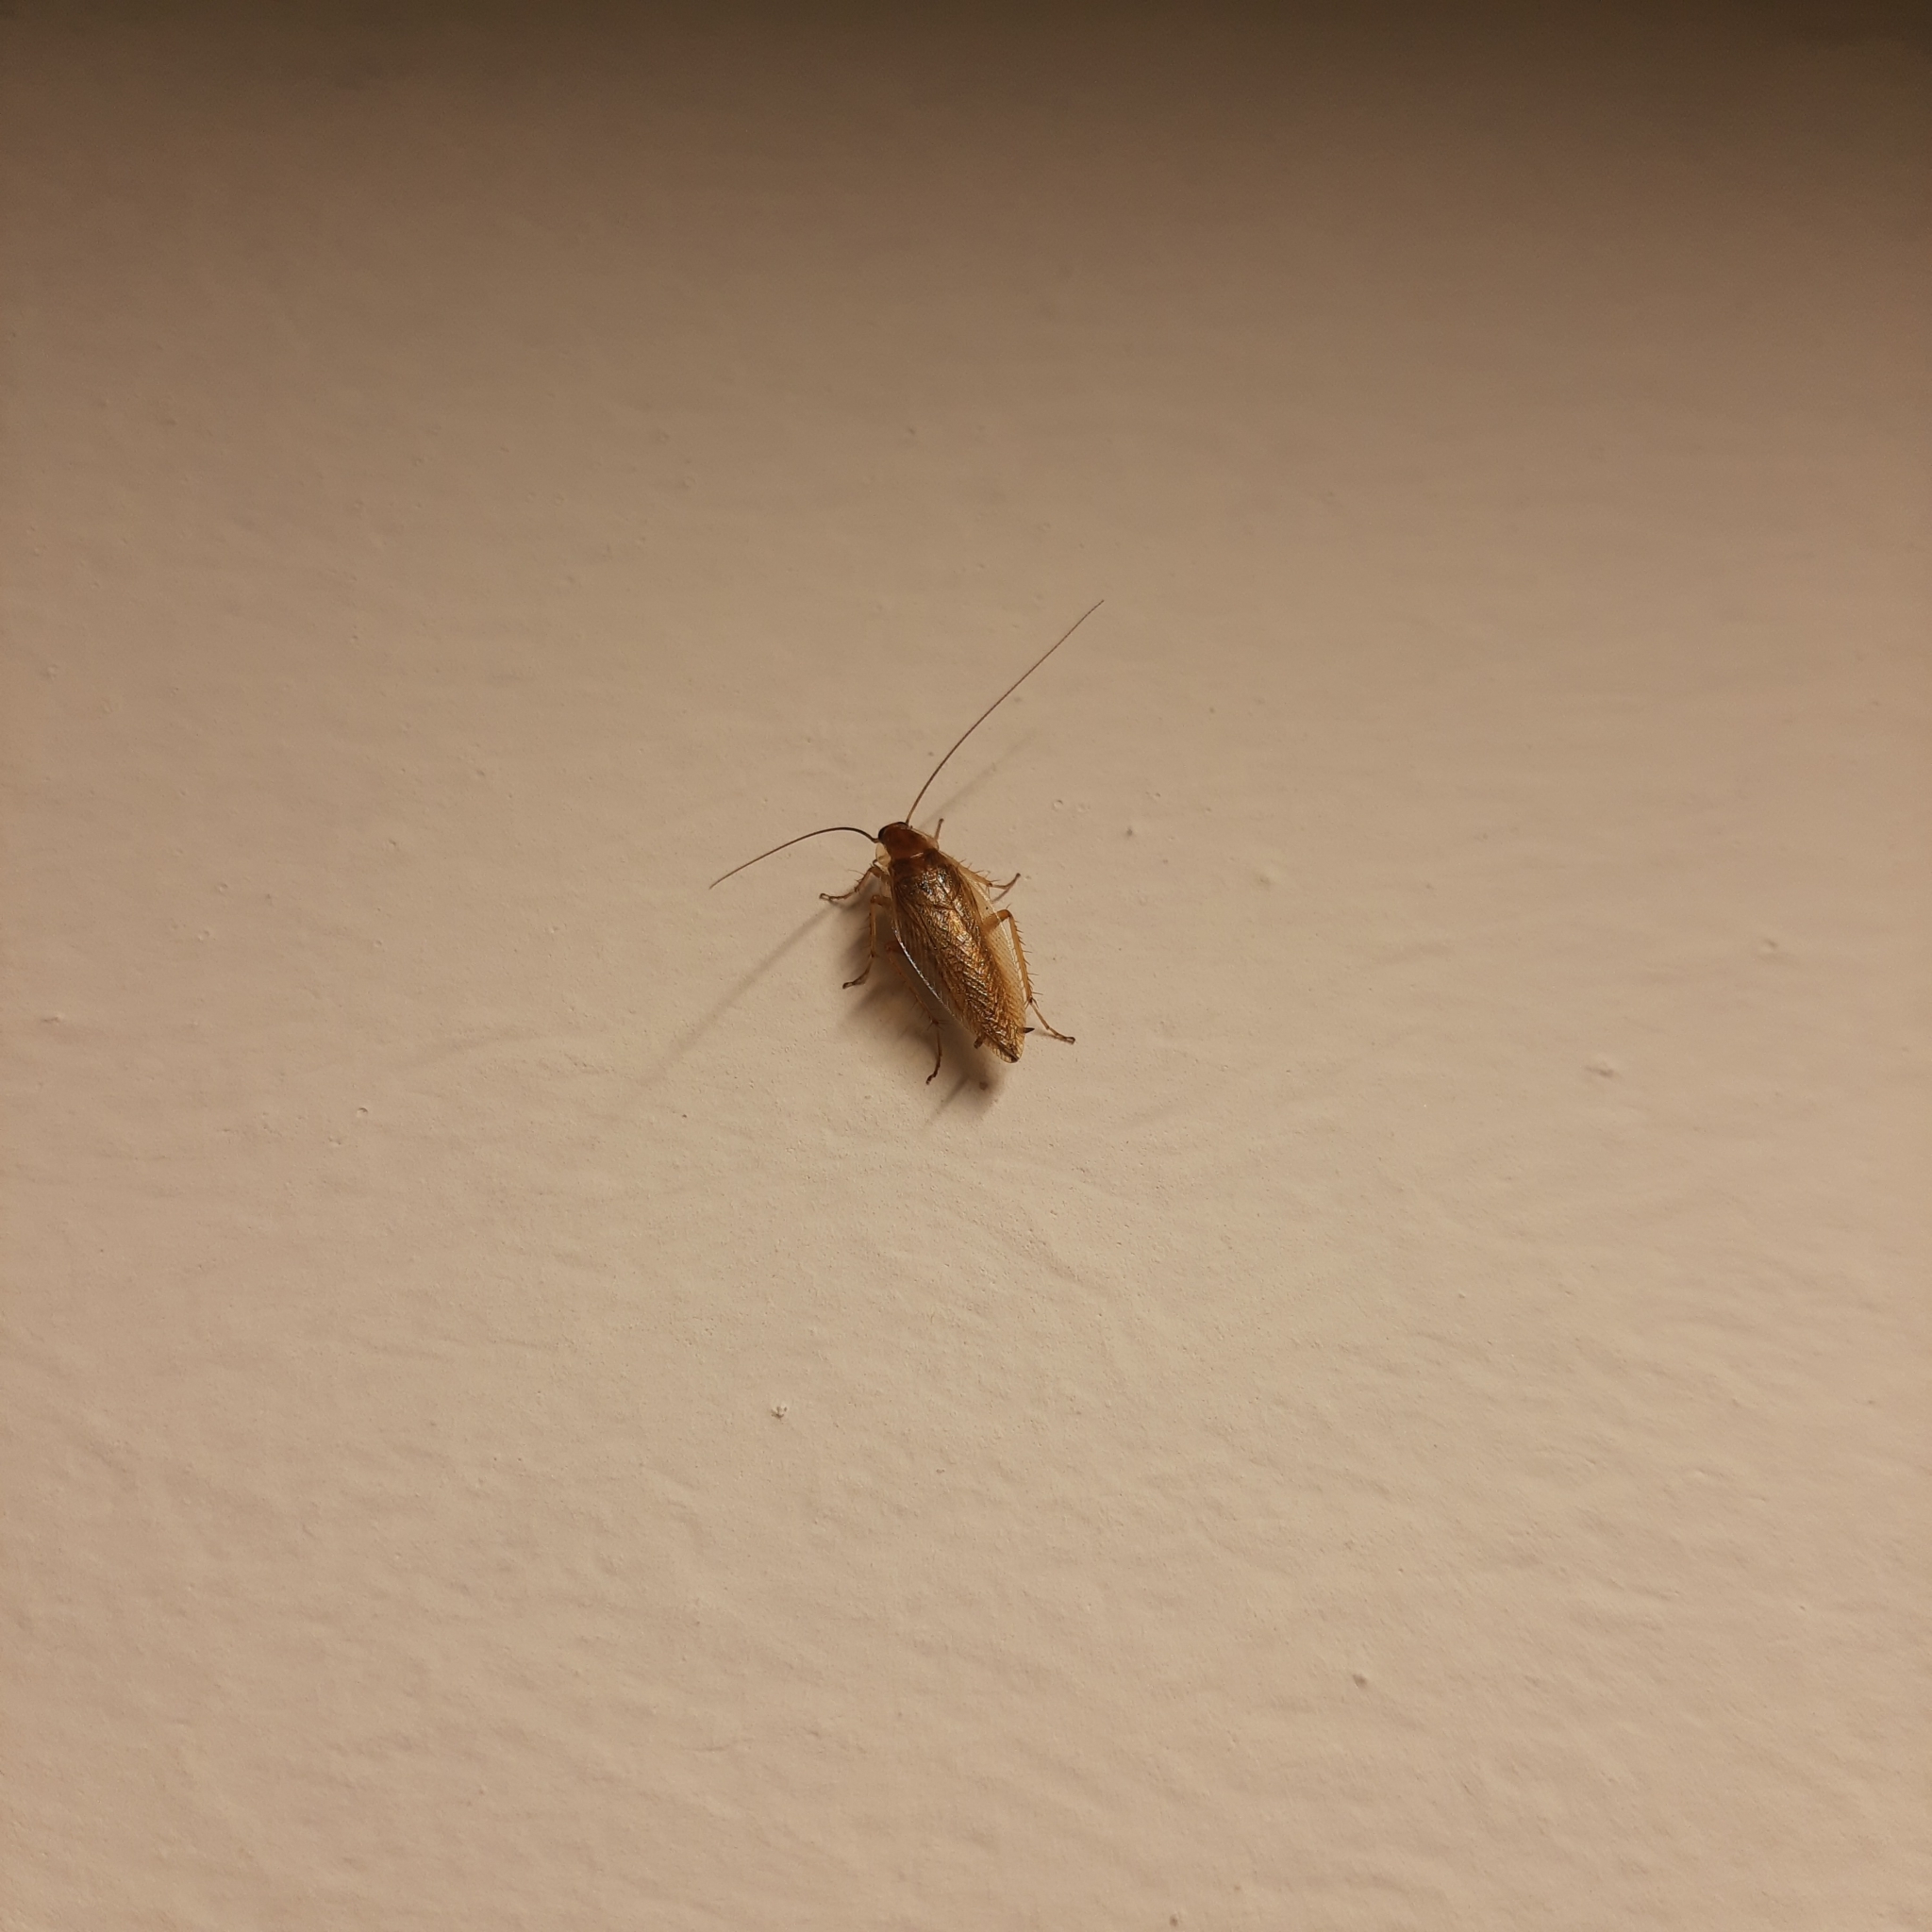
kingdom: Animalia
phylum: Arthropoda
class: Insecta
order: Blattodea
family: Ectobiidae
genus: Ectobius
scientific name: Ectobius vittiventris
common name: Garden cockroach
